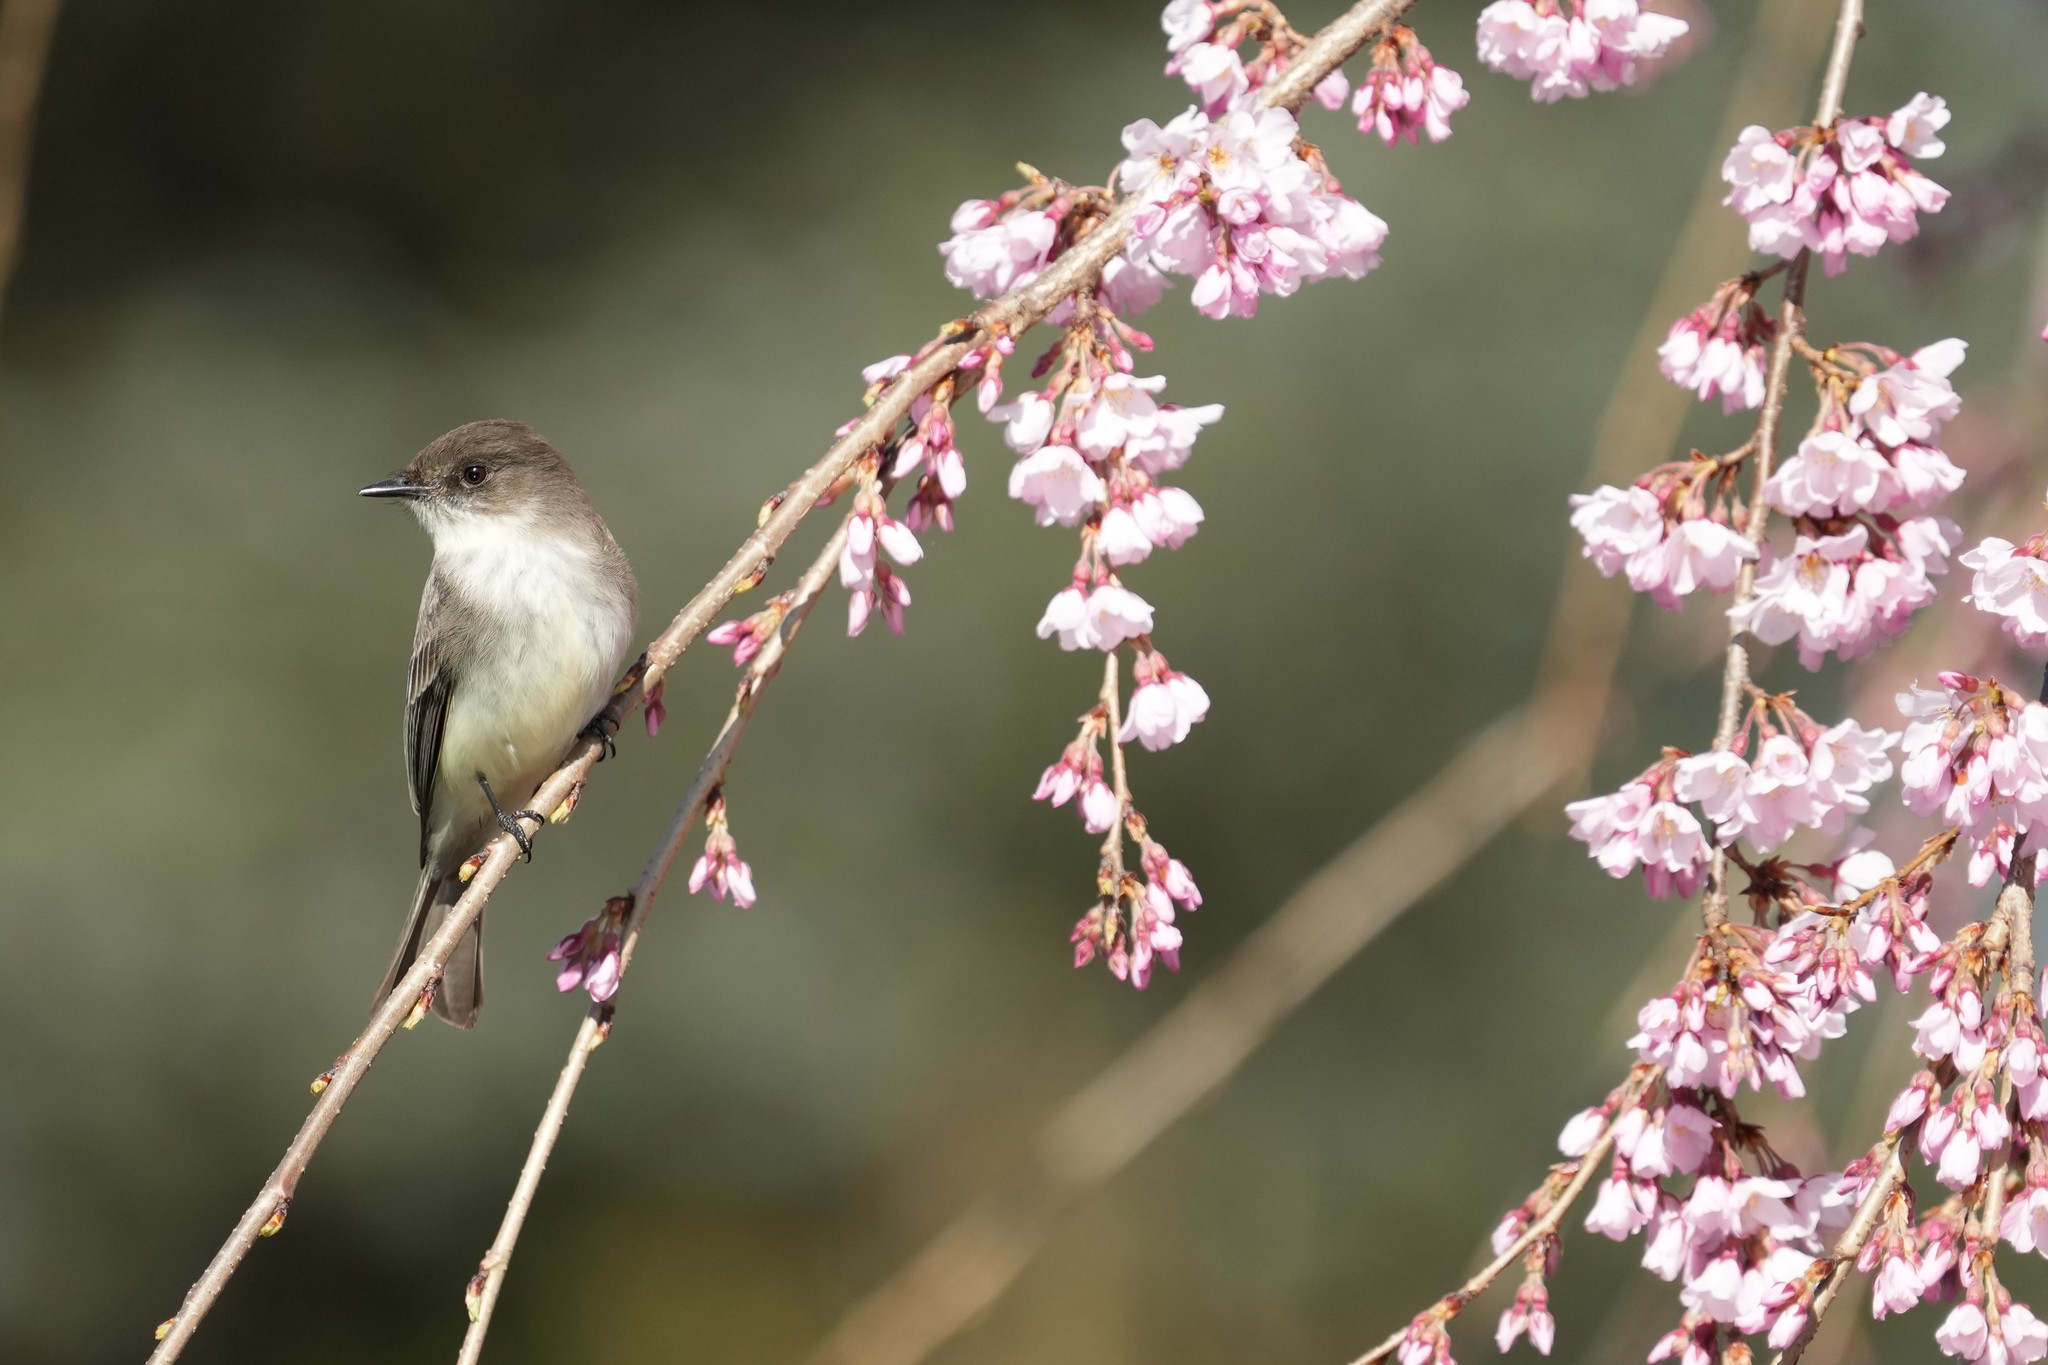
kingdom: Animalia
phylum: Chordata
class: Aves
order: Passeriformes
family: Tyrannidae
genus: Sayornis
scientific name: Sayornis phoebe
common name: Eastern phoebe
